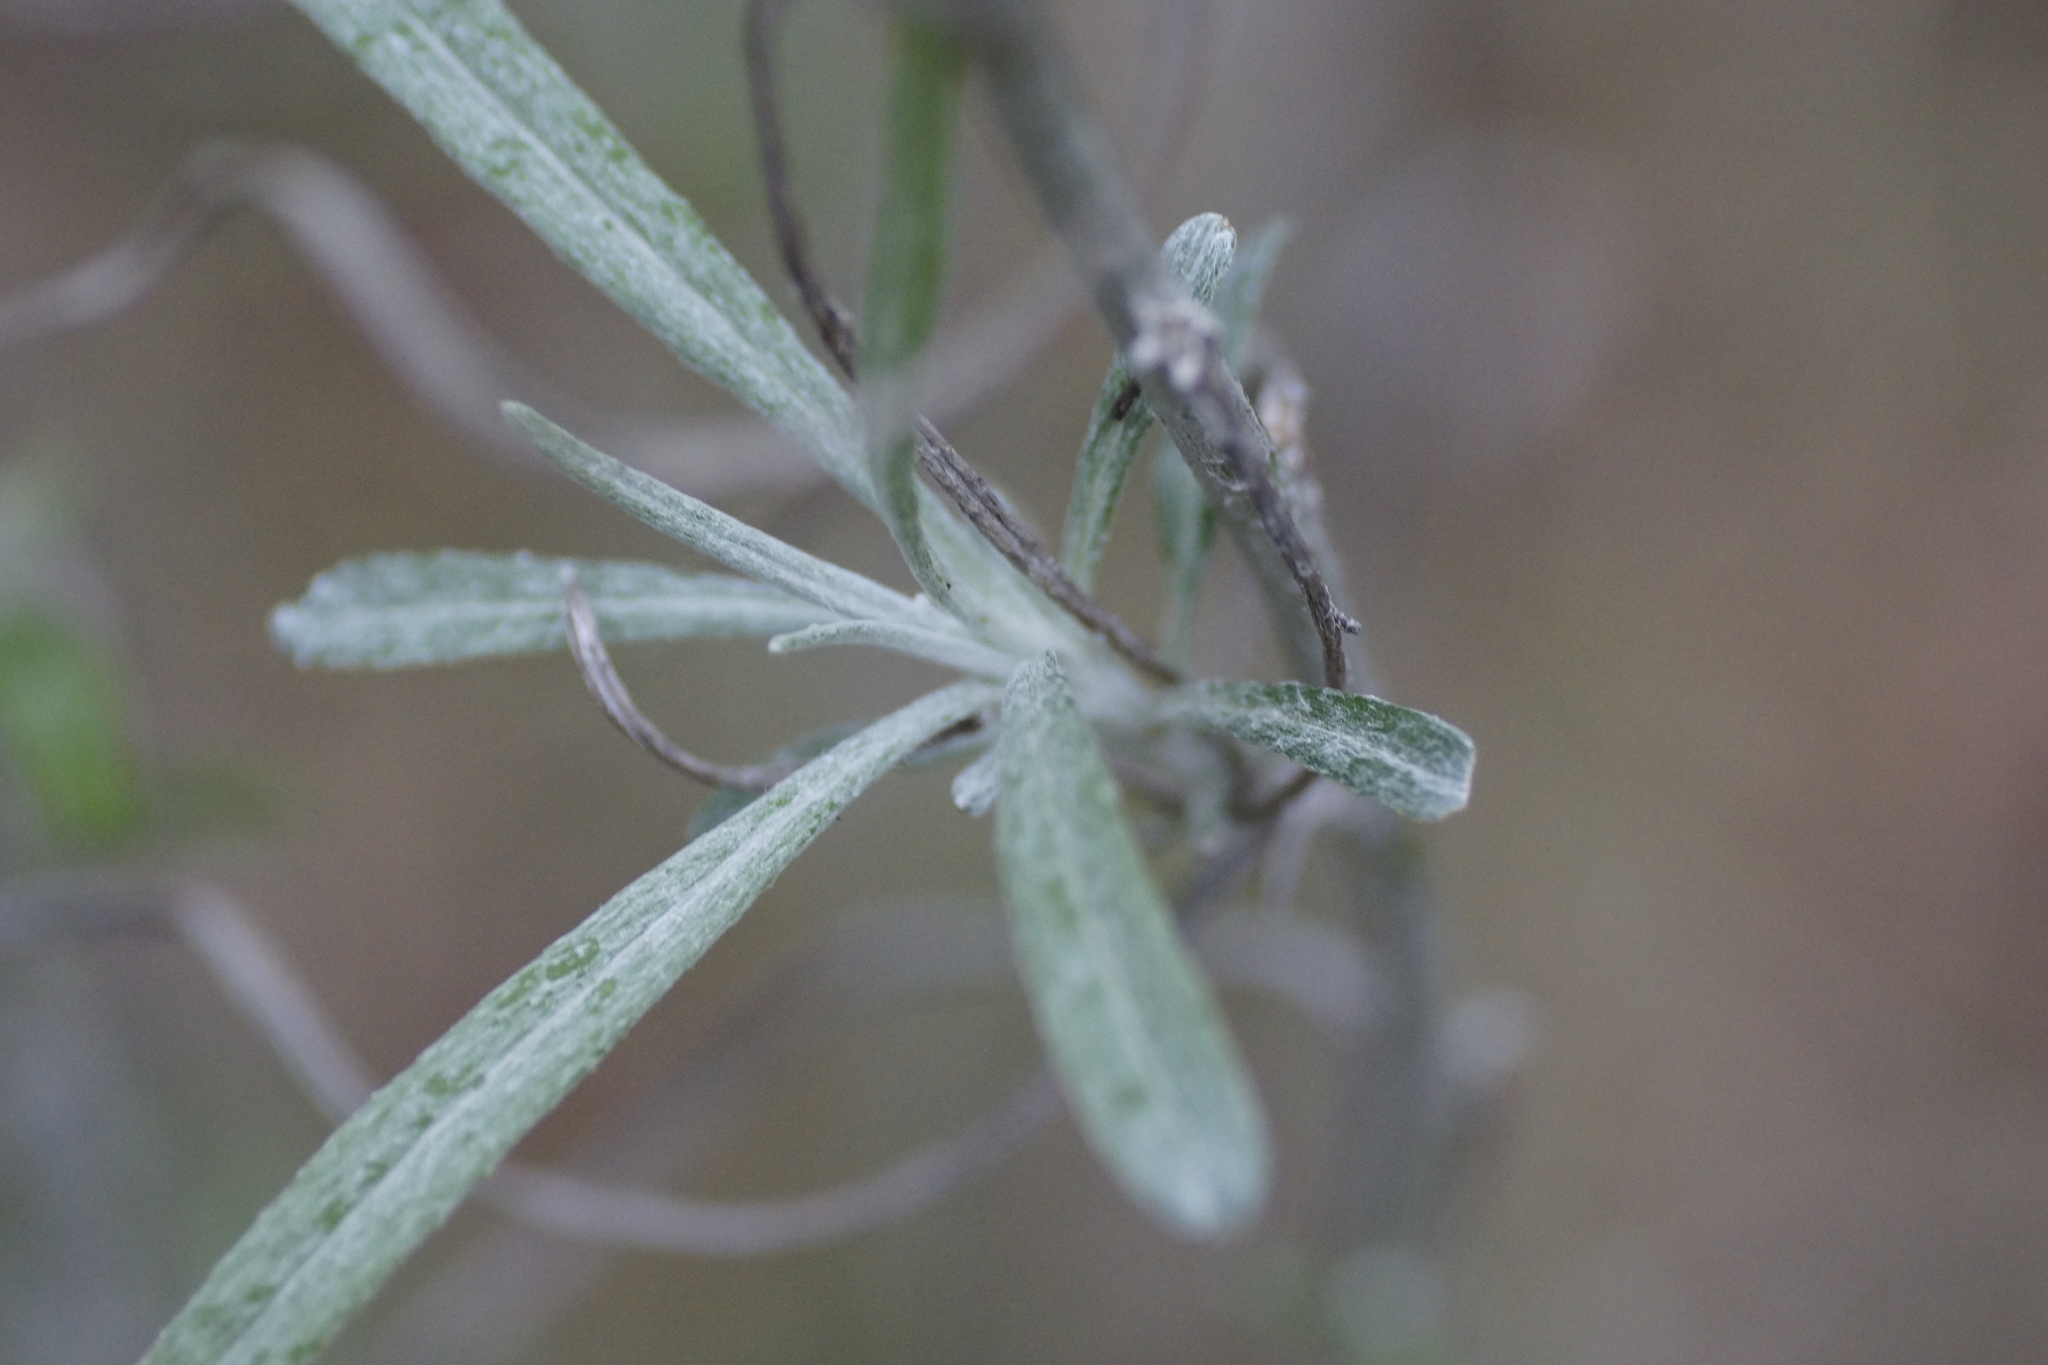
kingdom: Plantae
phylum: Tracheophyta
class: Magnoliopsida
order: Asterales
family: Asteraceae
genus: Senecio
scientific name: Senecio quadridentatus
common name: Cotton fireweed
